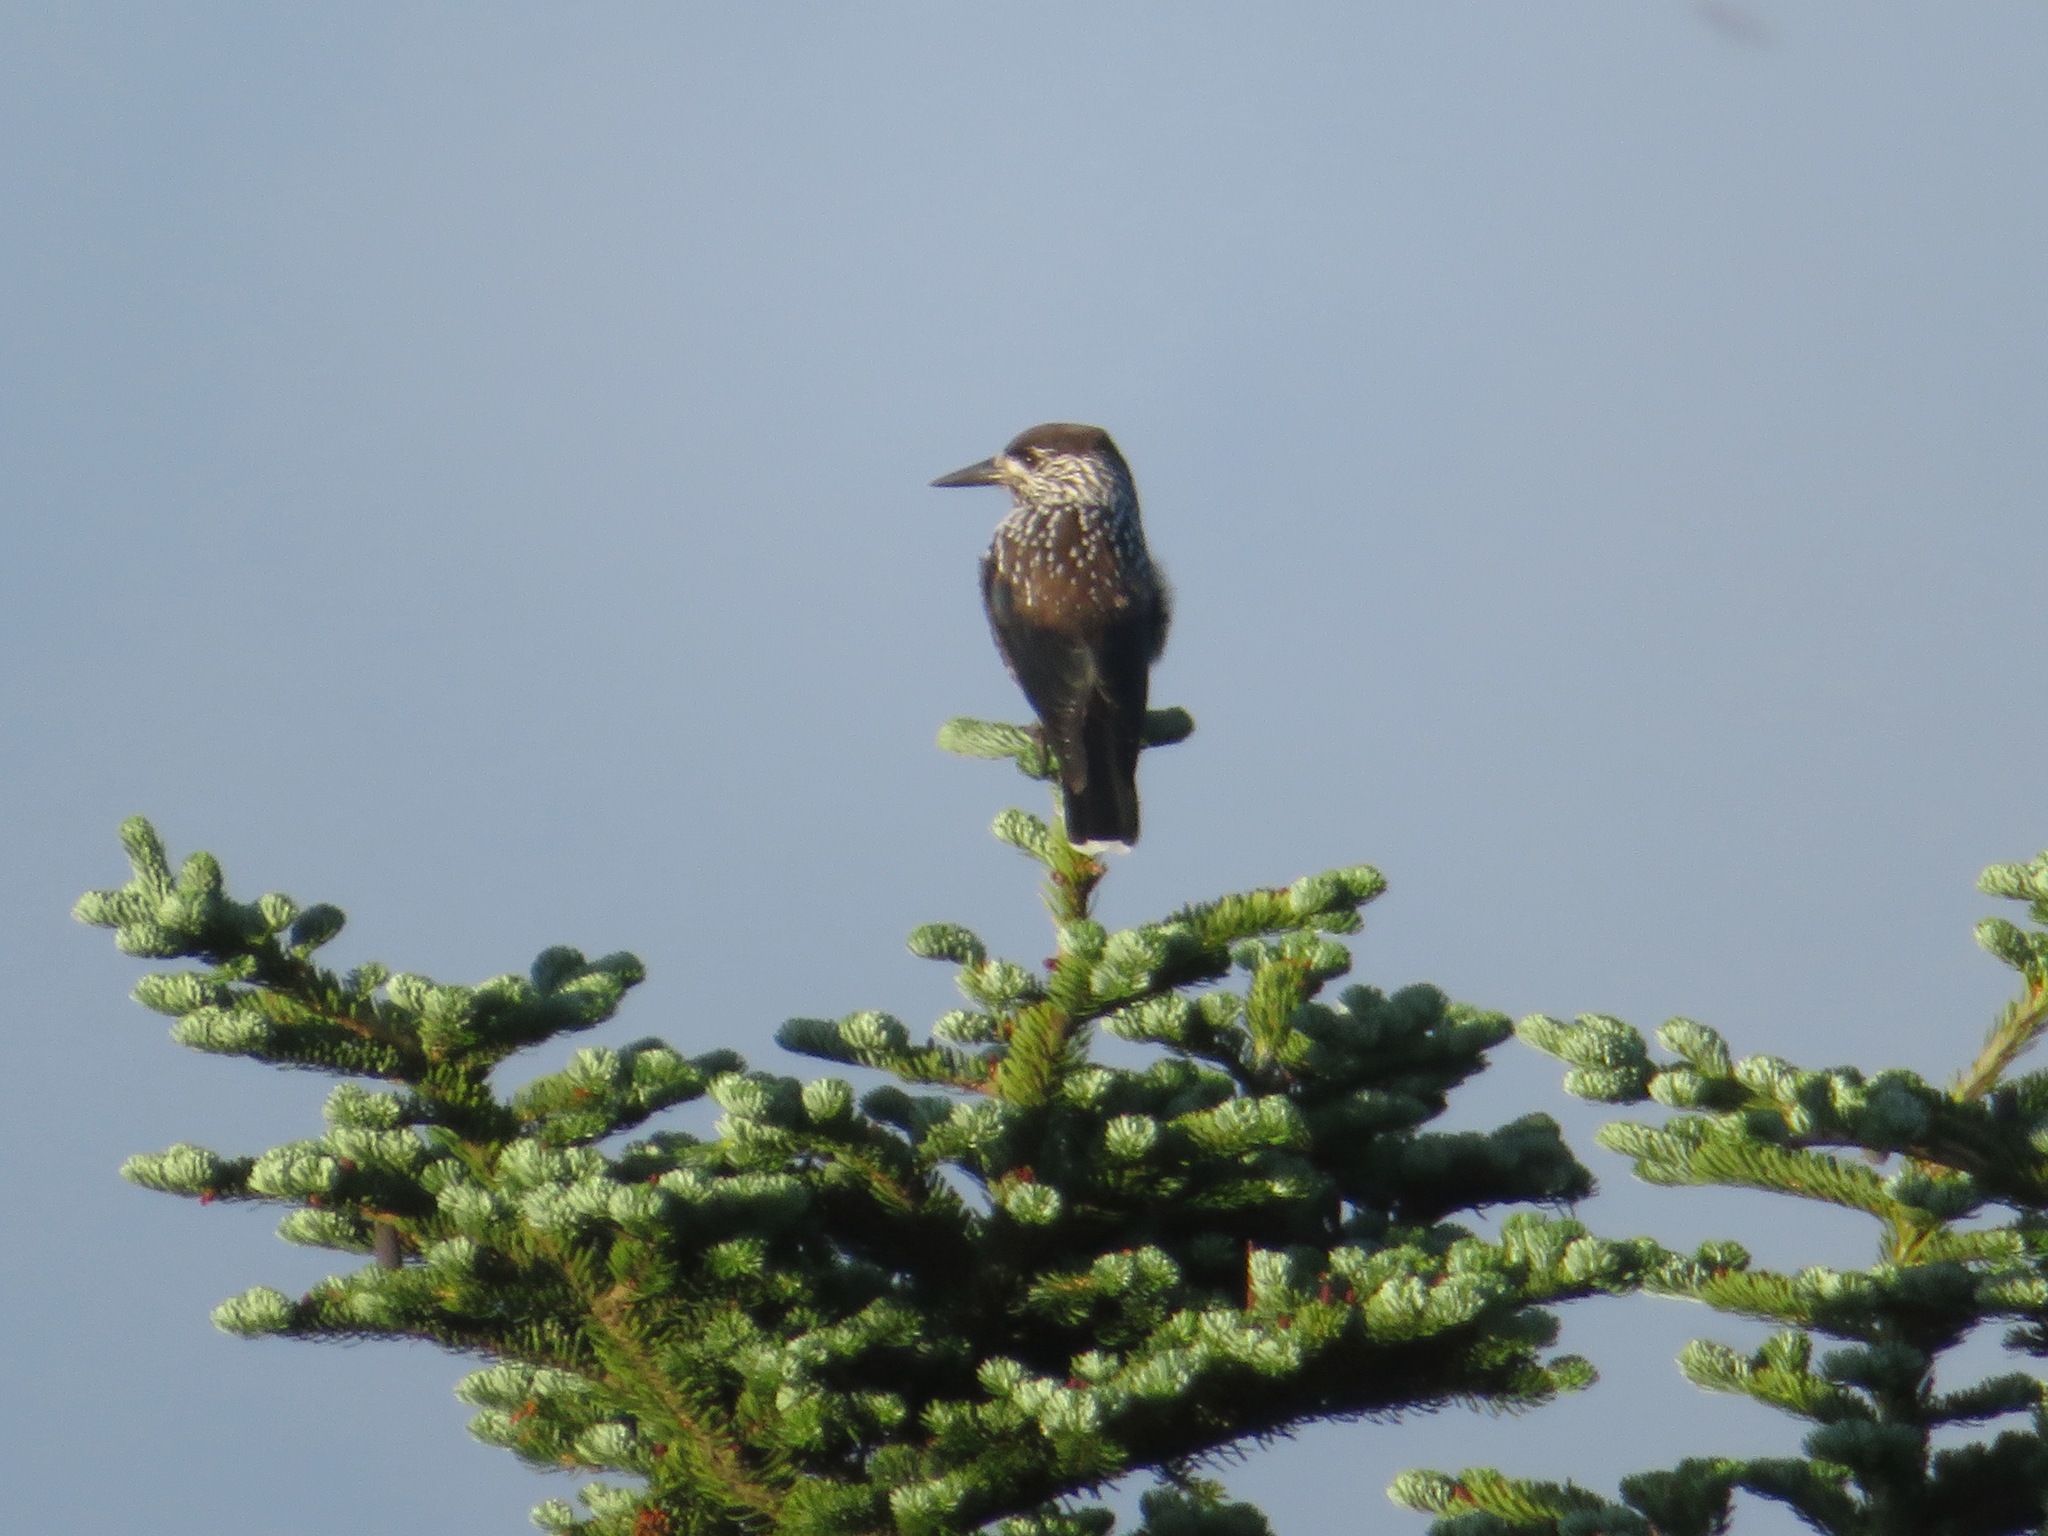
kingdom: Animalia
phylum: Chordata
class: Aves
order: Passeriformes
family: Corvidae
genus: Nucifraga
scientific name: Nucifraga caryocatactes
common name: Spotted nutcracker
